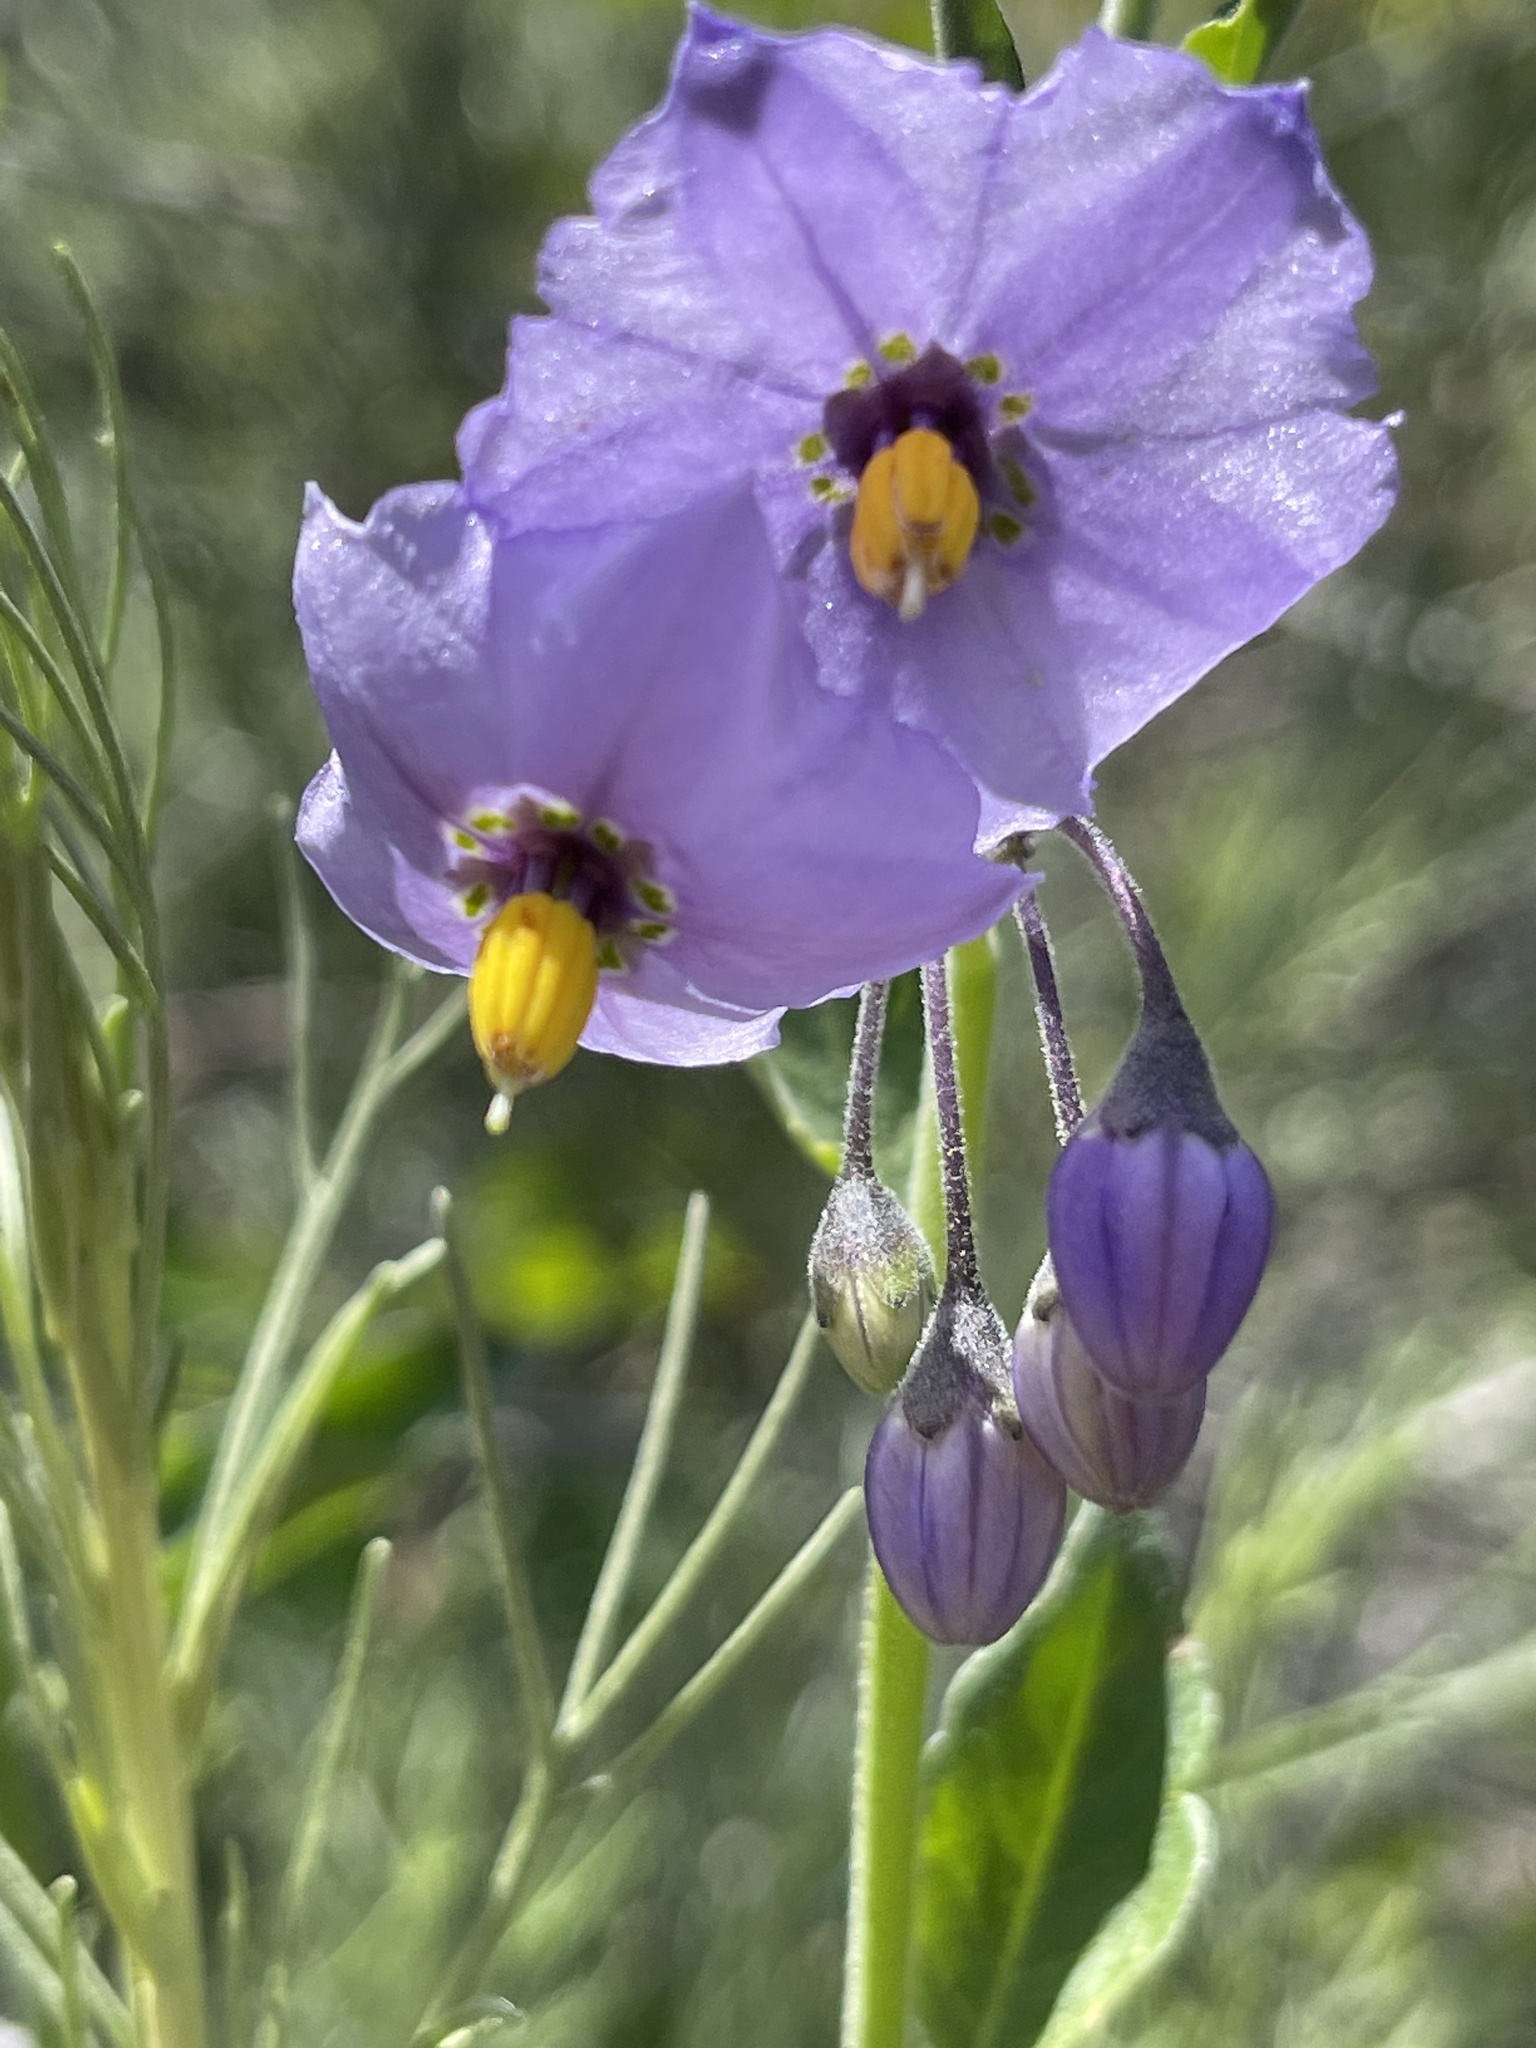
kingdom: Plantae
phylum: Tracheophyta
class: Magnoliopsida
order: Solanales
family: Solanaceae
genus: Solanum
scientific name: Solanum umbelliferum
